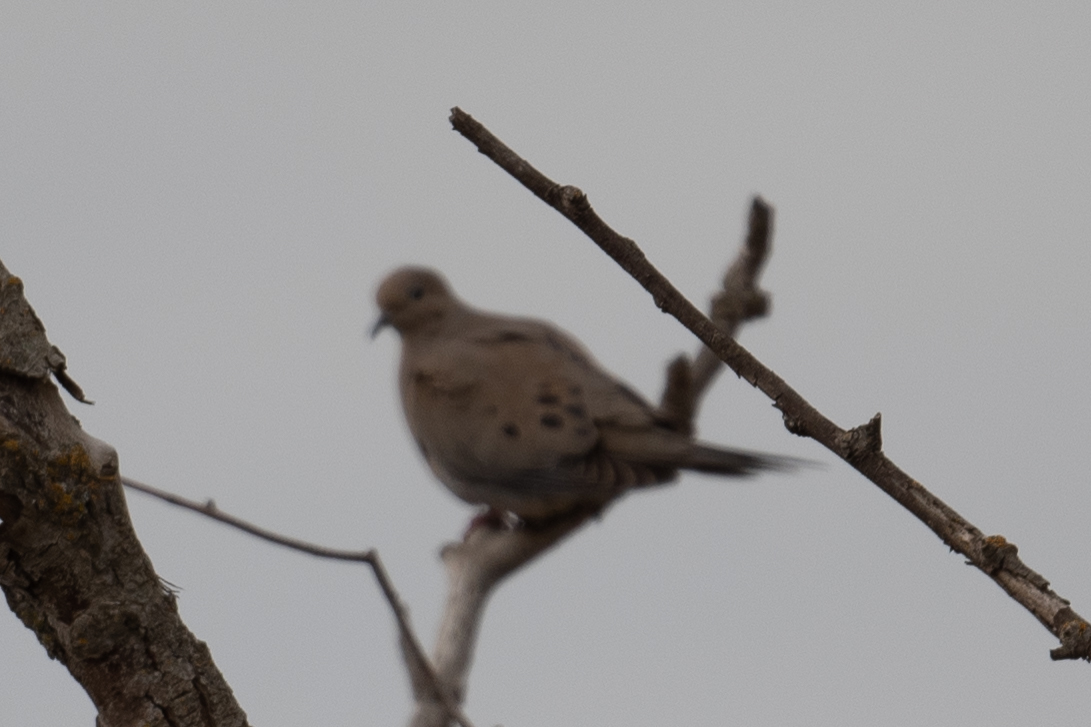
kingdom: Animalia
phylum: Chordata
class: Aves
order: Columbiformes
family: Columbidae
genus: Zenaida
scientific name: Zenaida macroura
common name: Mourning dove
